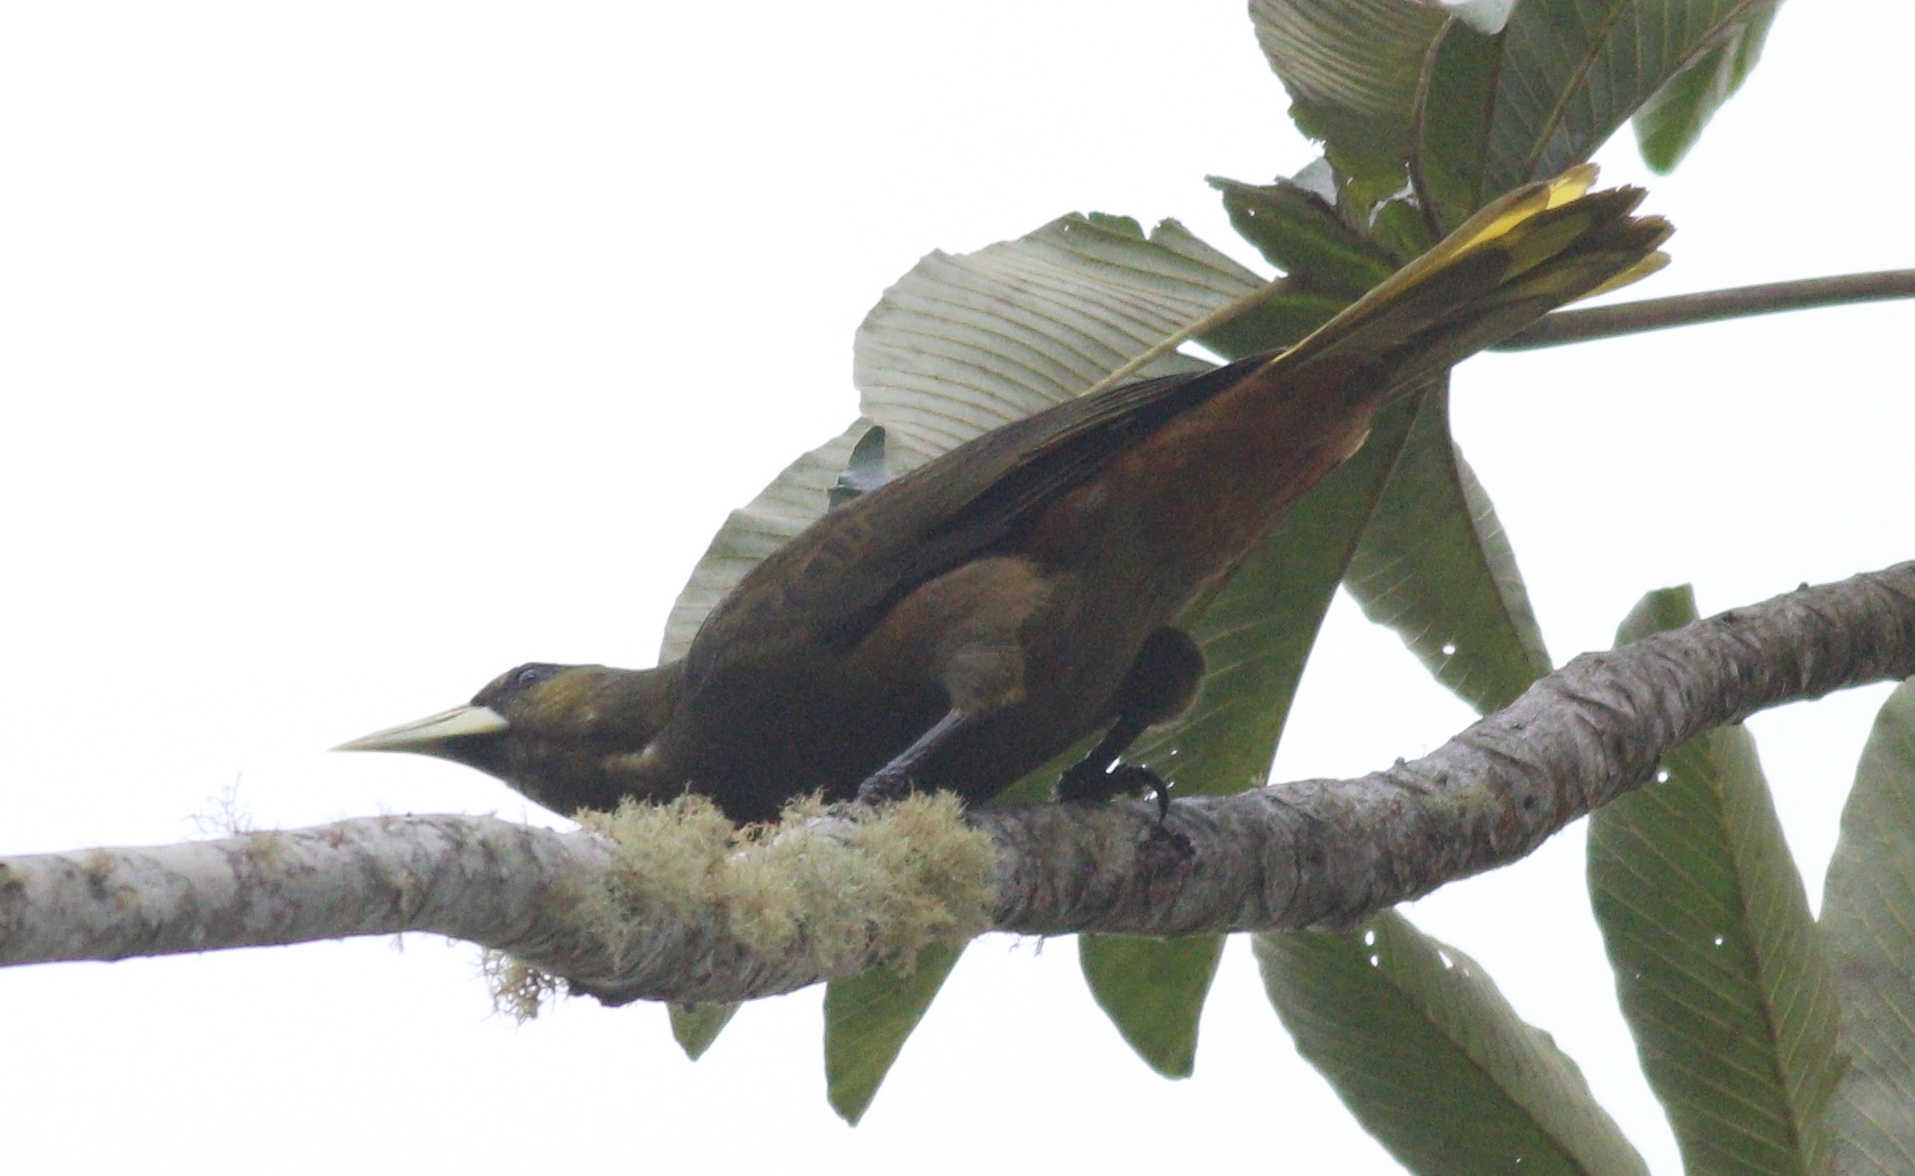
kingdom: Animalia
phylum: Chordata
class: Aves
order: Passeriformes
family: Icteridae
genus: Psarocolius
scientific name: Psarocolius atrovirens
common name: Dusky-green oropendola
